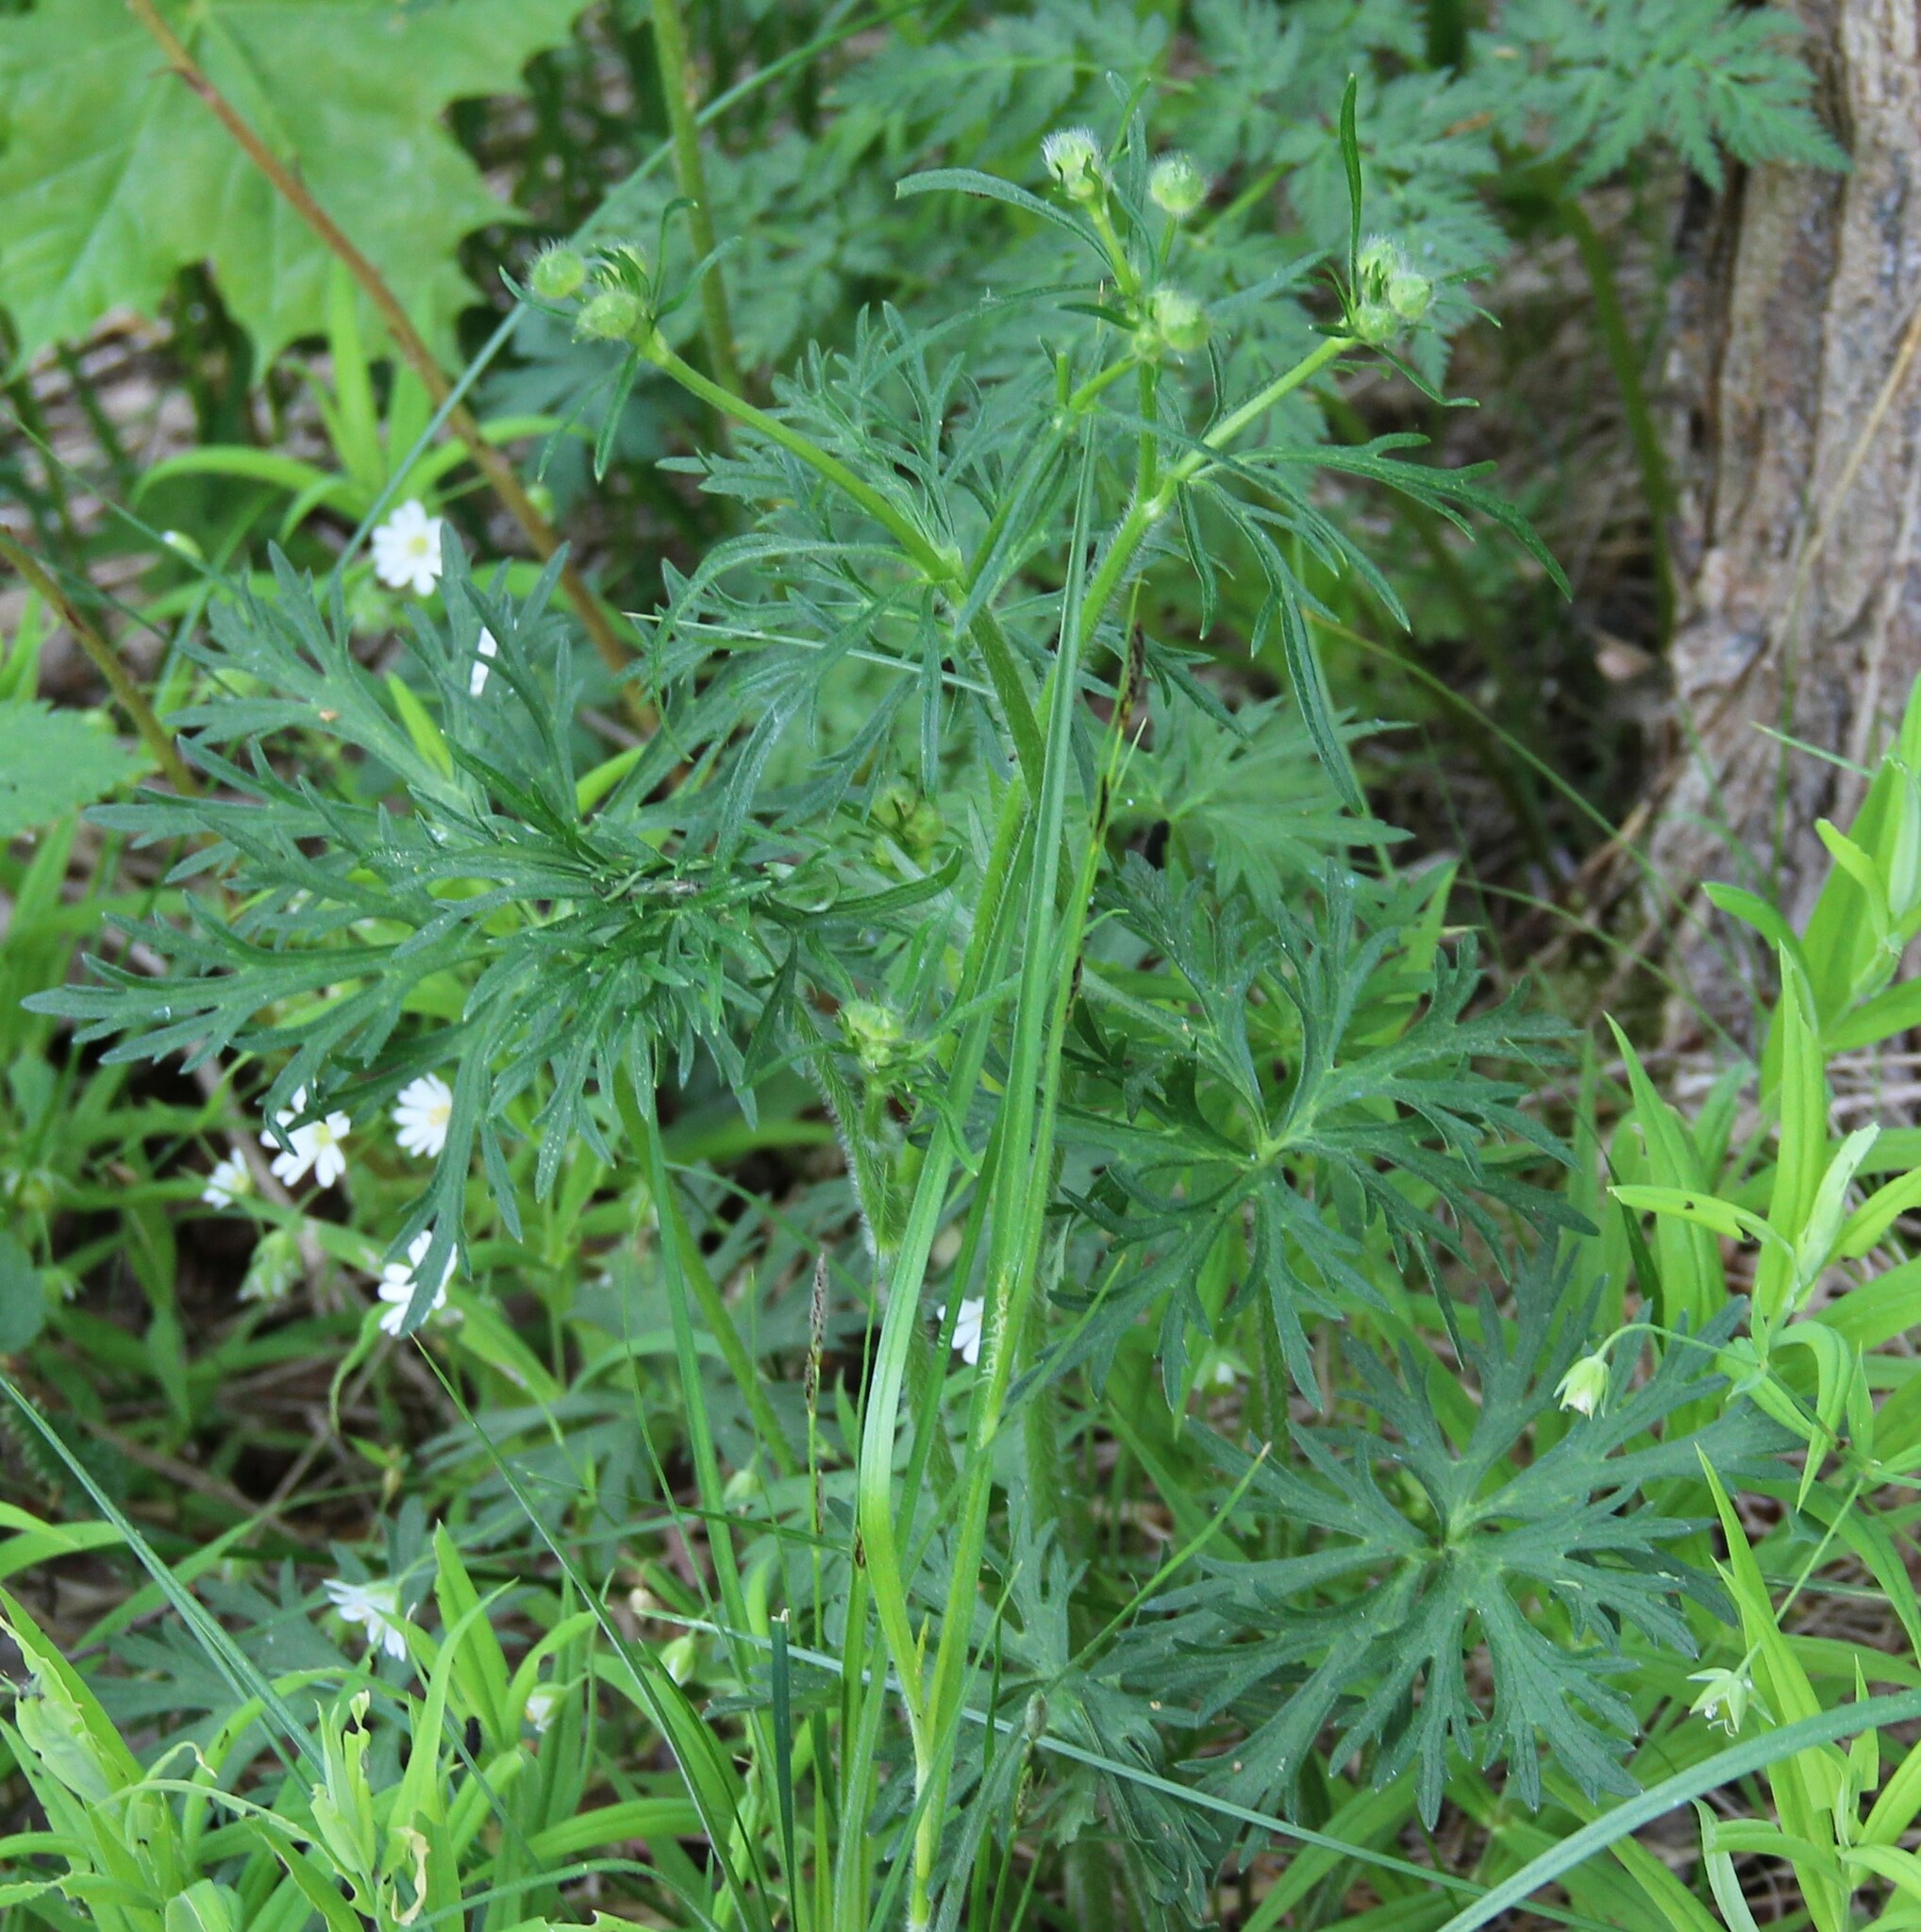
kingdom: Plantae
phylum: Tracheophyta
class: Magnoliopsida
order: Ranunculales
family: Ranunculaceae
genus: Ranunculus
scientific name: Ranunculus polyanthemos
